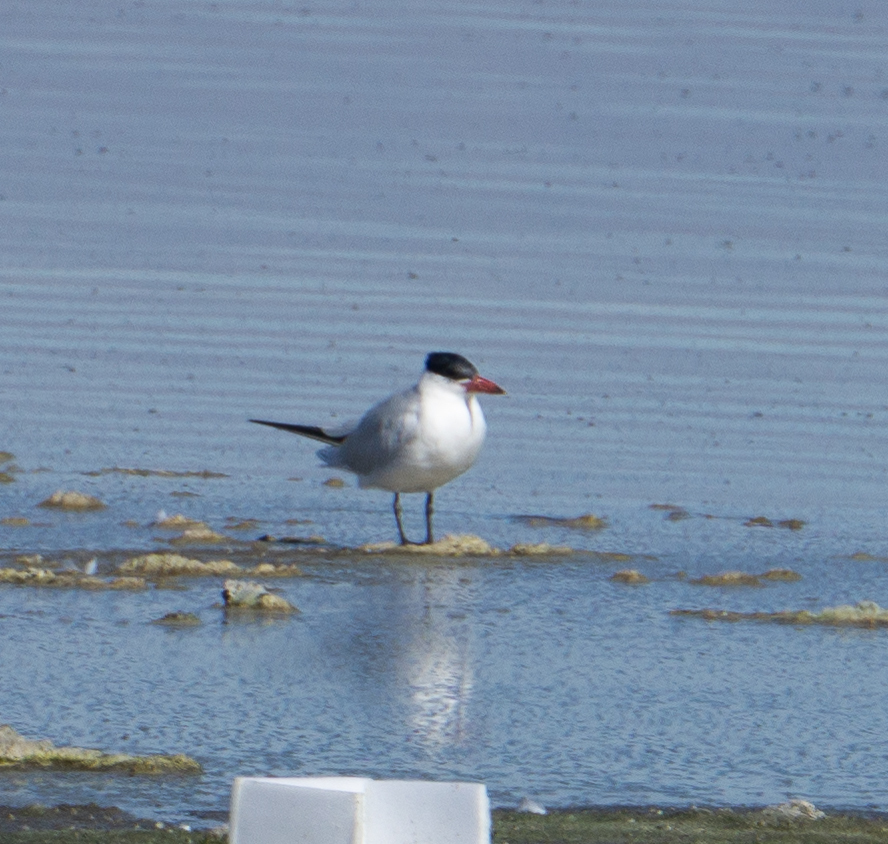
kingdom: Animalia
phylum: Chordata
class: Aves
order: Charadriiformes
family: Laridae
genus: Hydroprogne
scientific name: Hydroprogne caspia
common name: Caspian tern
